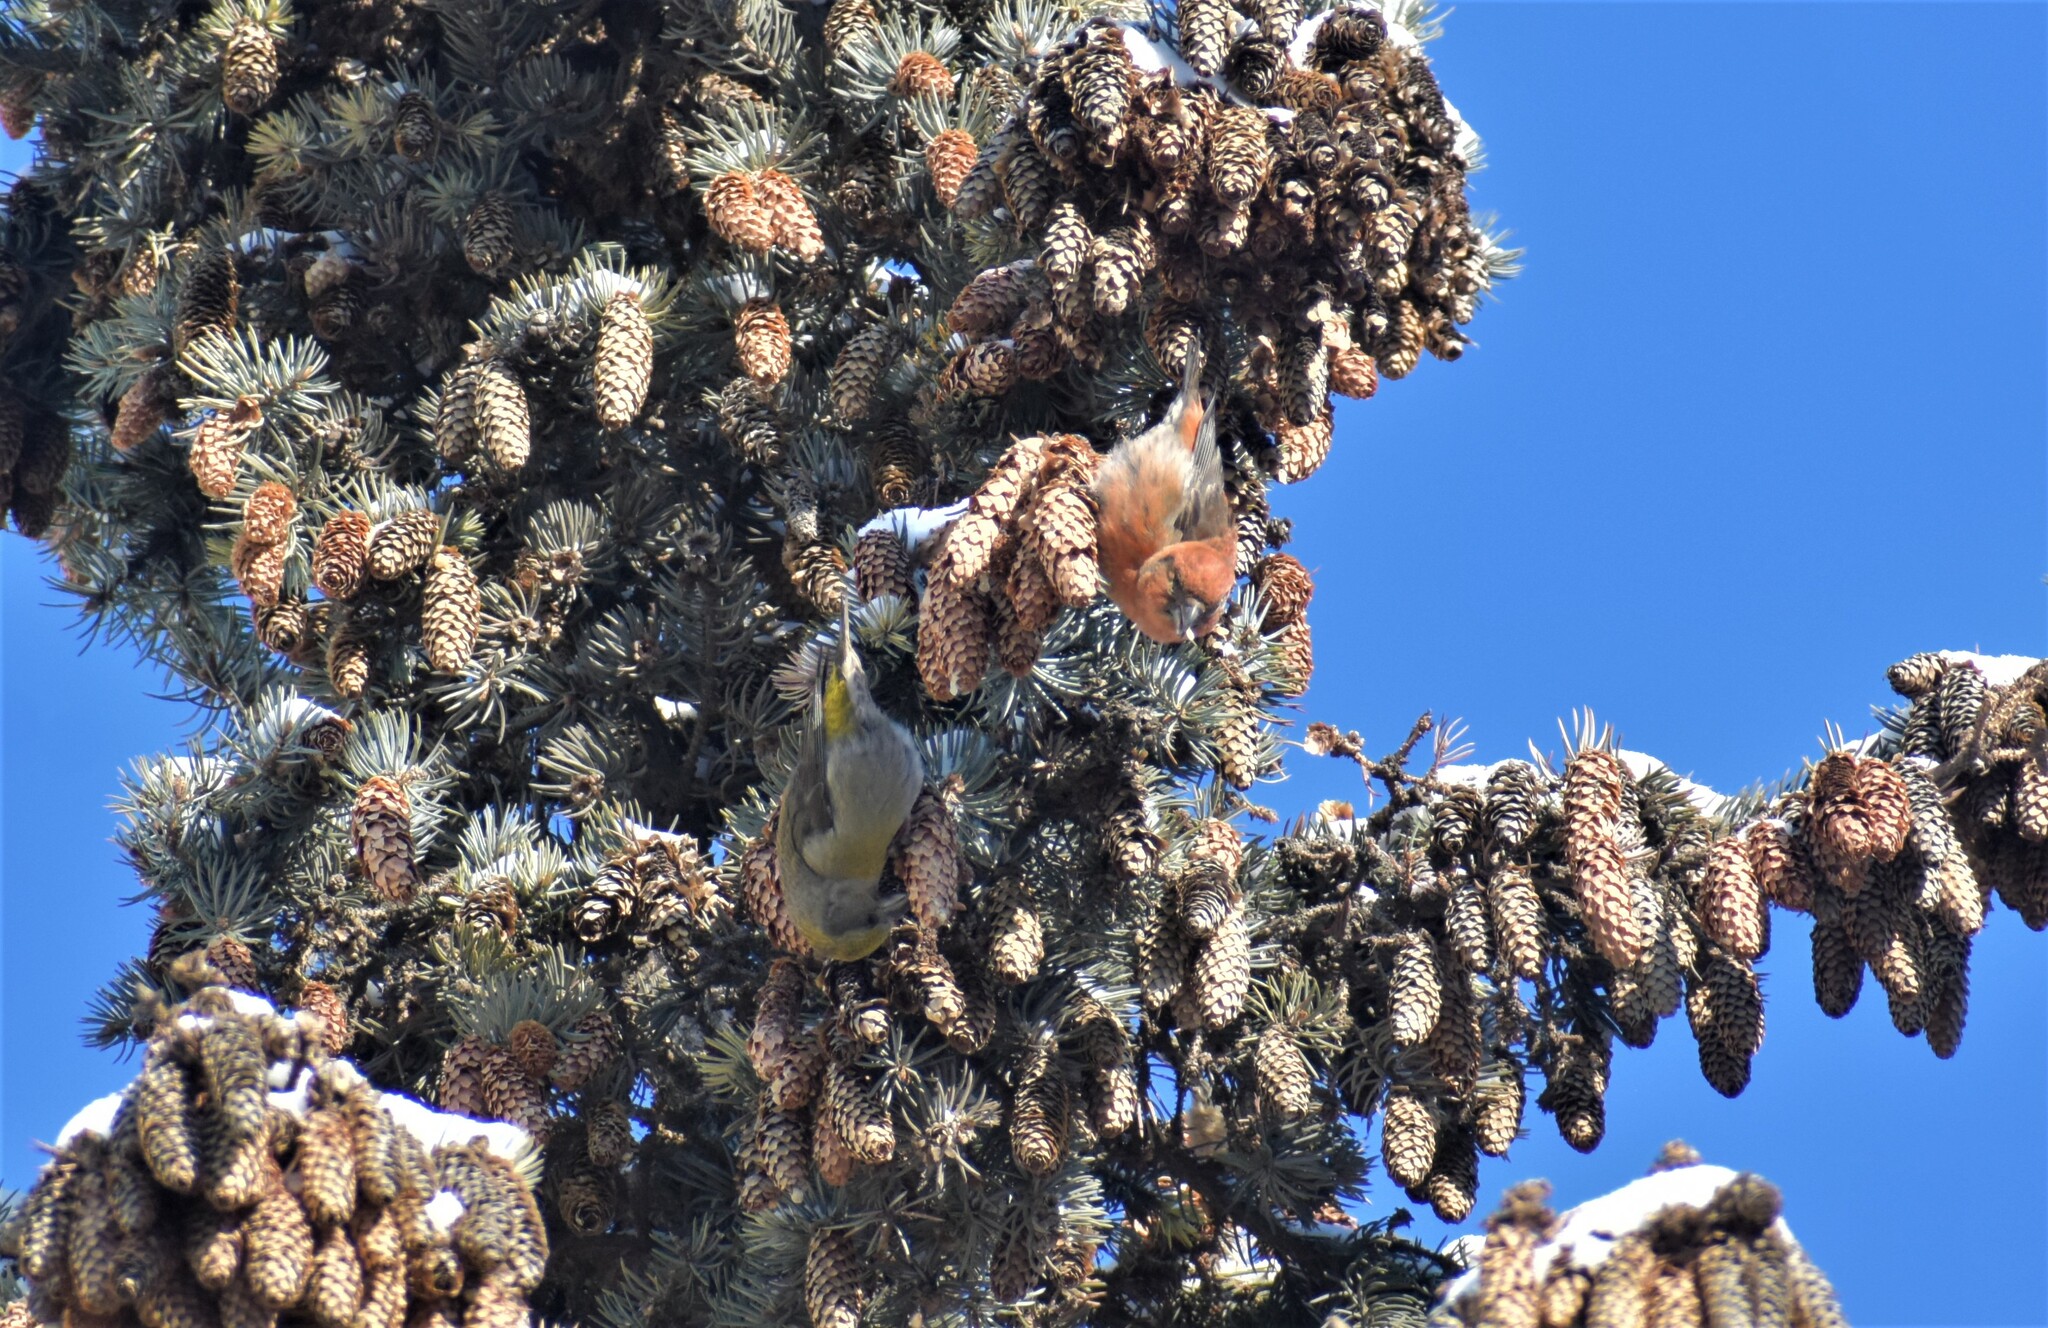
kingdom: Animalia
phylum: Chordata
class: Aves
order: Passeriformes
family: Fringillidae
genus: Loxia
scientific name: Loxia curvirostra
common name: Red crossbill
